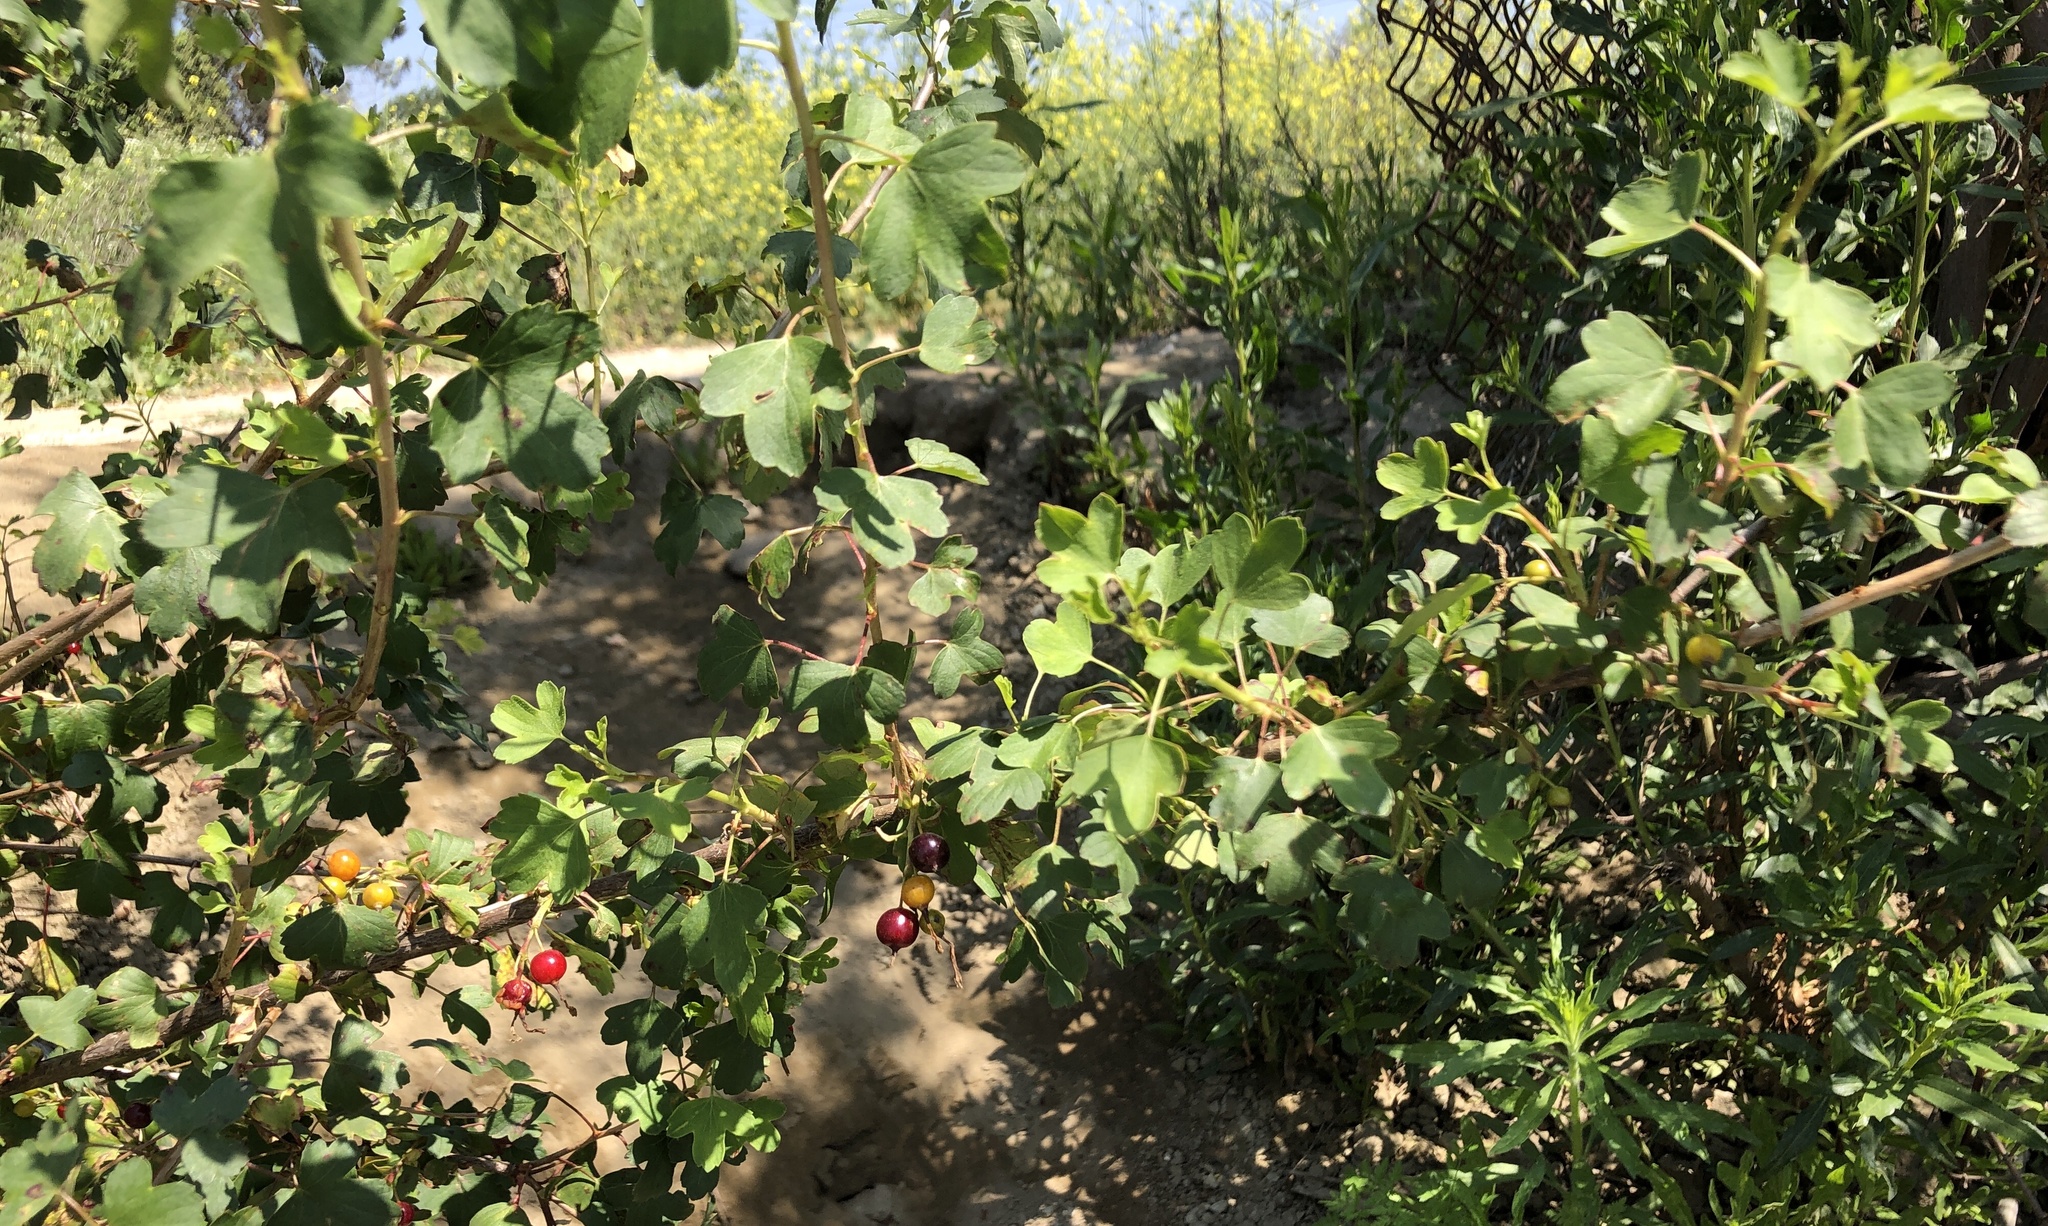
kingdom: Plantae
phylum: Tracheophyta
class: Magnoliopsida
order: Saxifragales
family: Grossulariaceae
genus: Ribes
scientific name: Ribes aureum
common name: Golden currant
